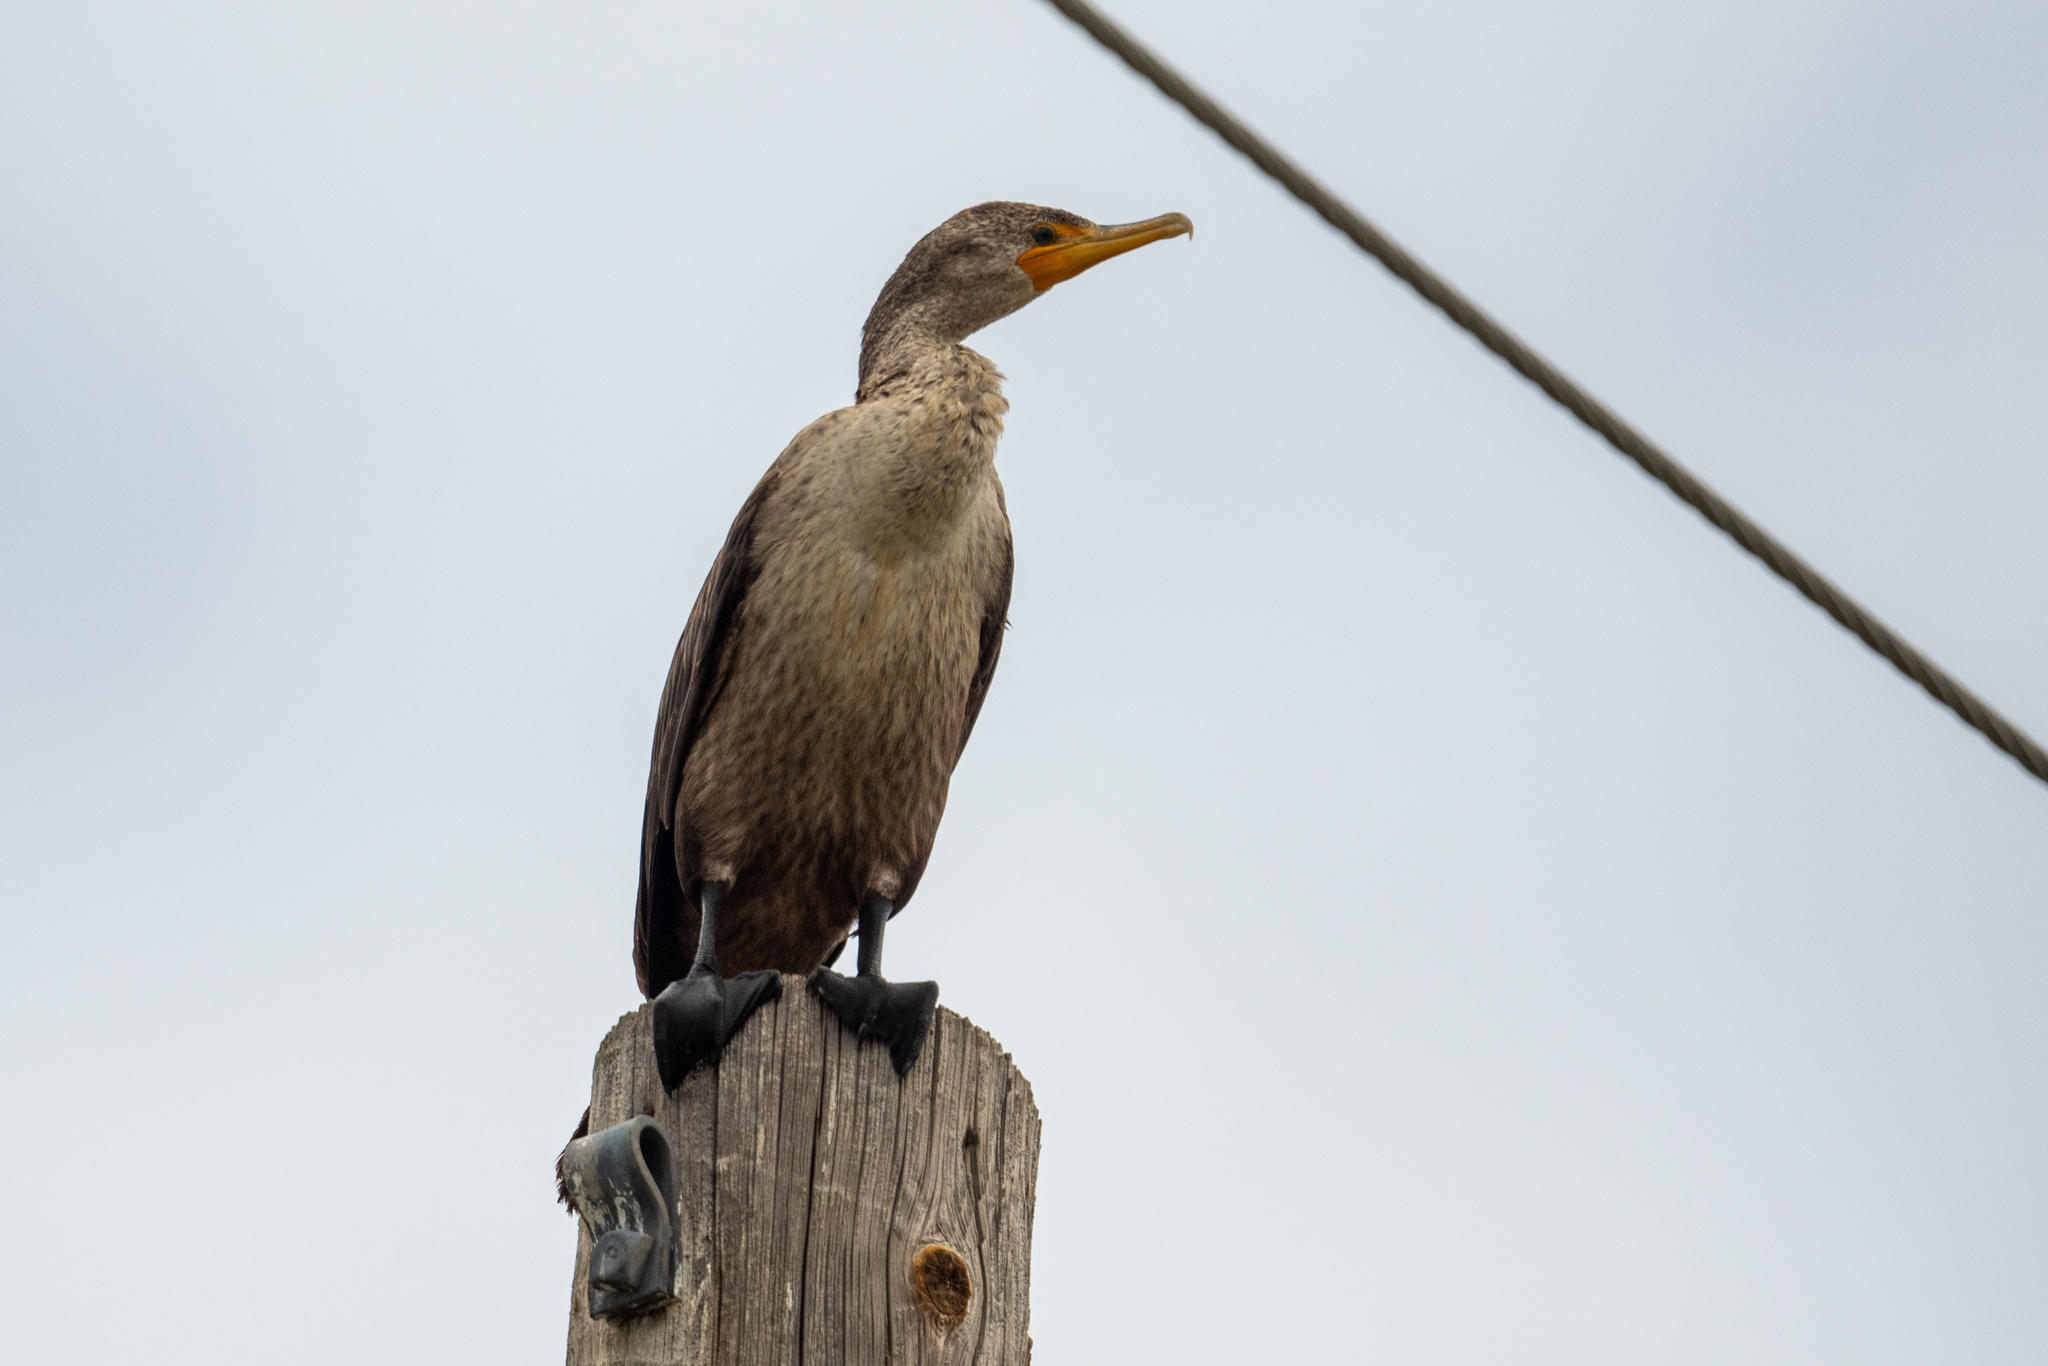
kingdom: Animalia
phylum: Chordata
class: Aves
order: Suliformes
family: Phalacrocoracidae
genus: Phalacrocorax
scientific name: Phalacrocorax auritus
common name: Double-crested cormorant
